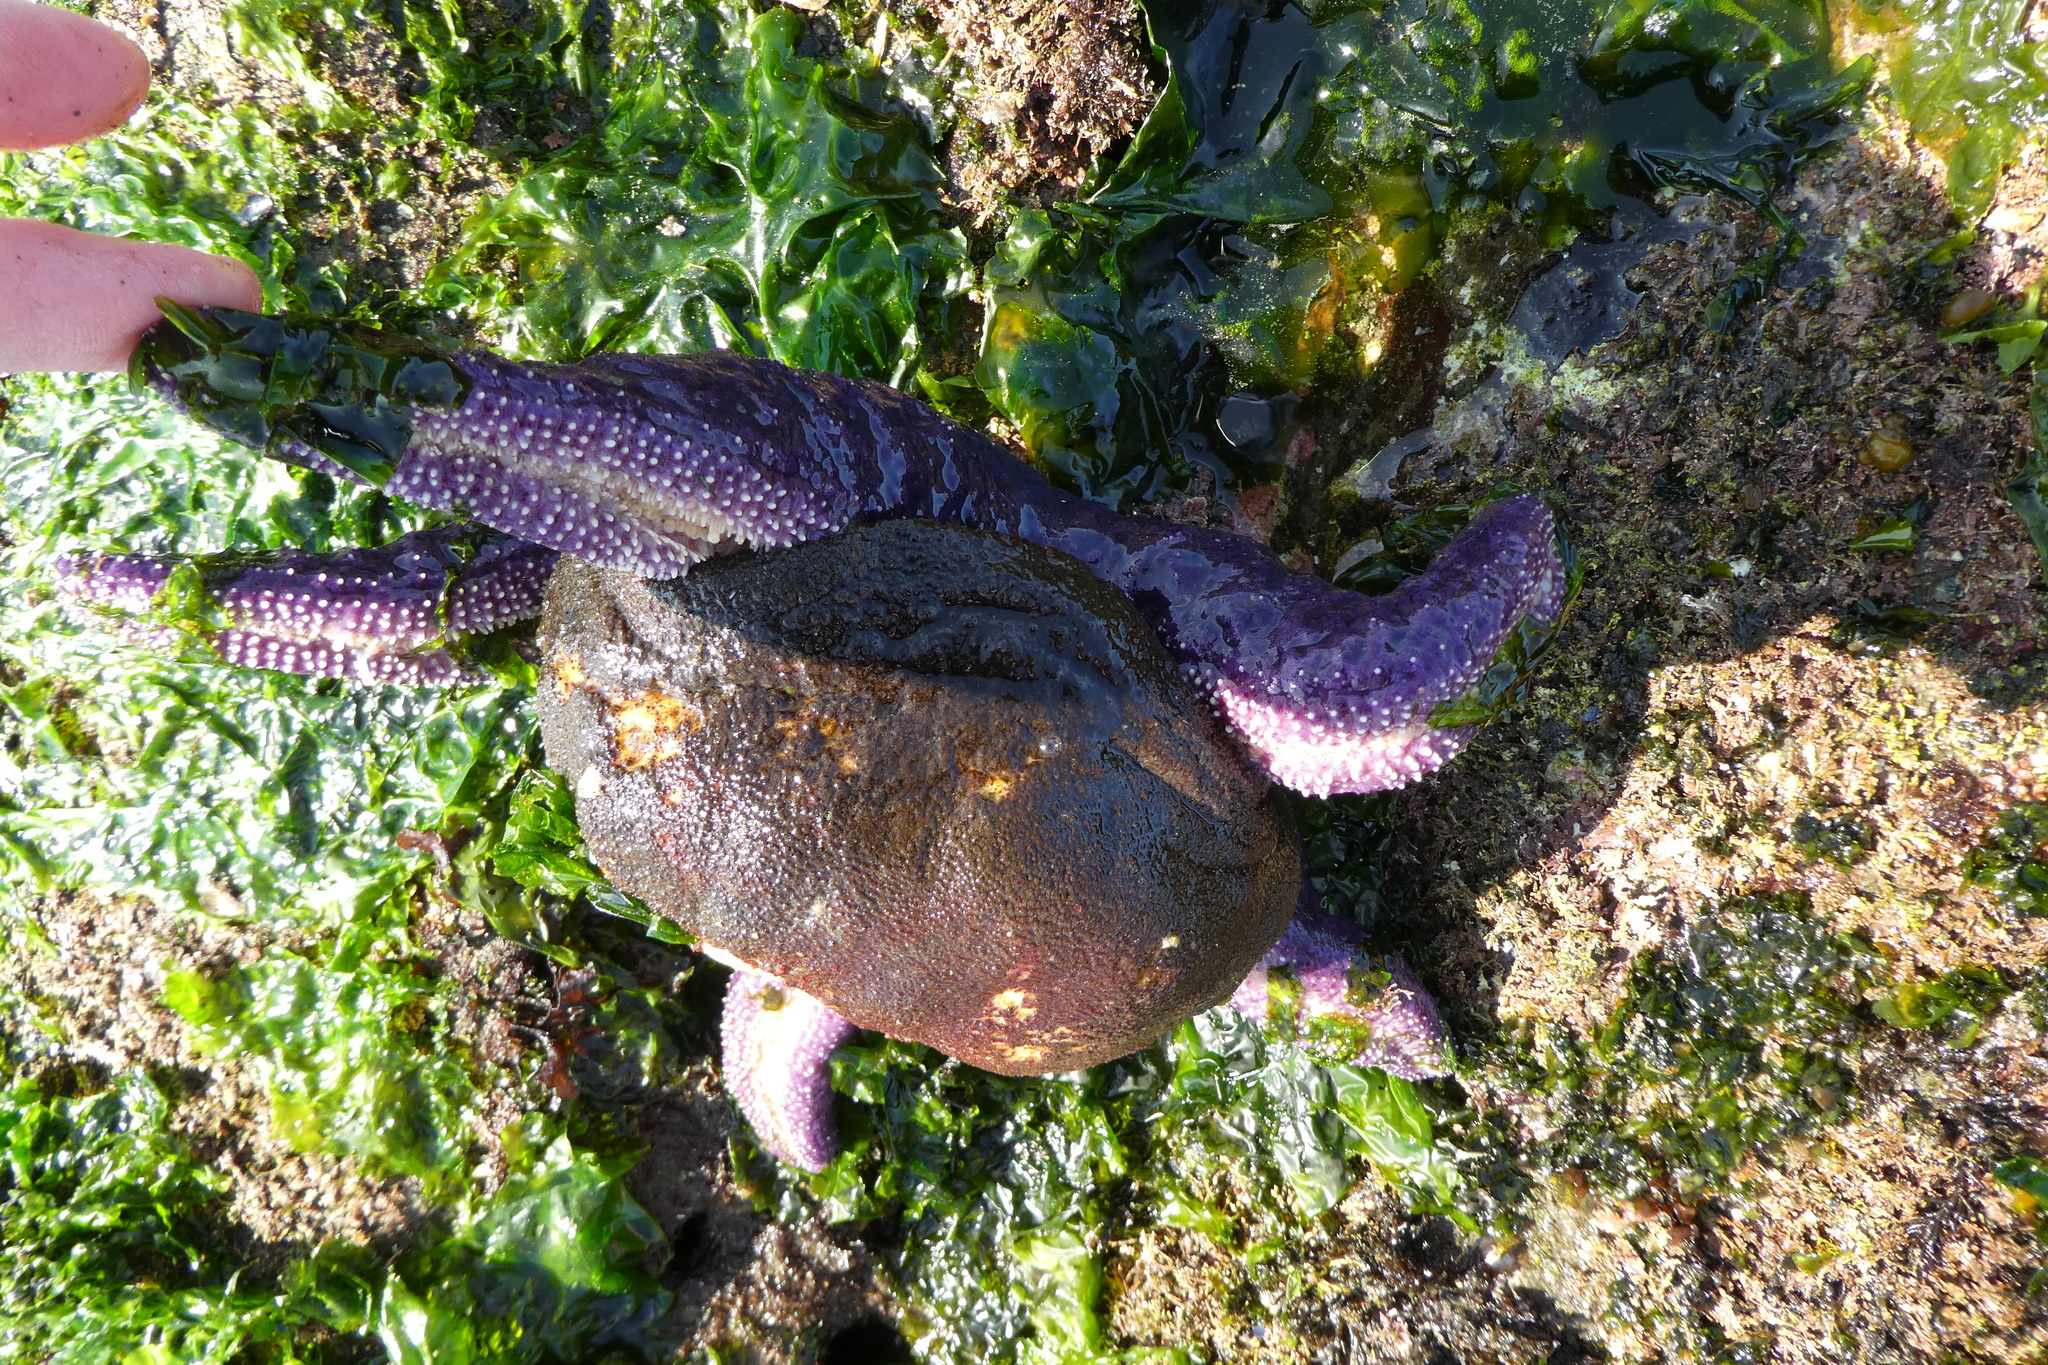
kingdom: Animalia
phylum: Echinodermata
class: Asteroidea
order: Forcipulatida
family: Asteriidae
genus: Pisaster
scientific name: Pisaster ochraceus
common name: Ochre stars
